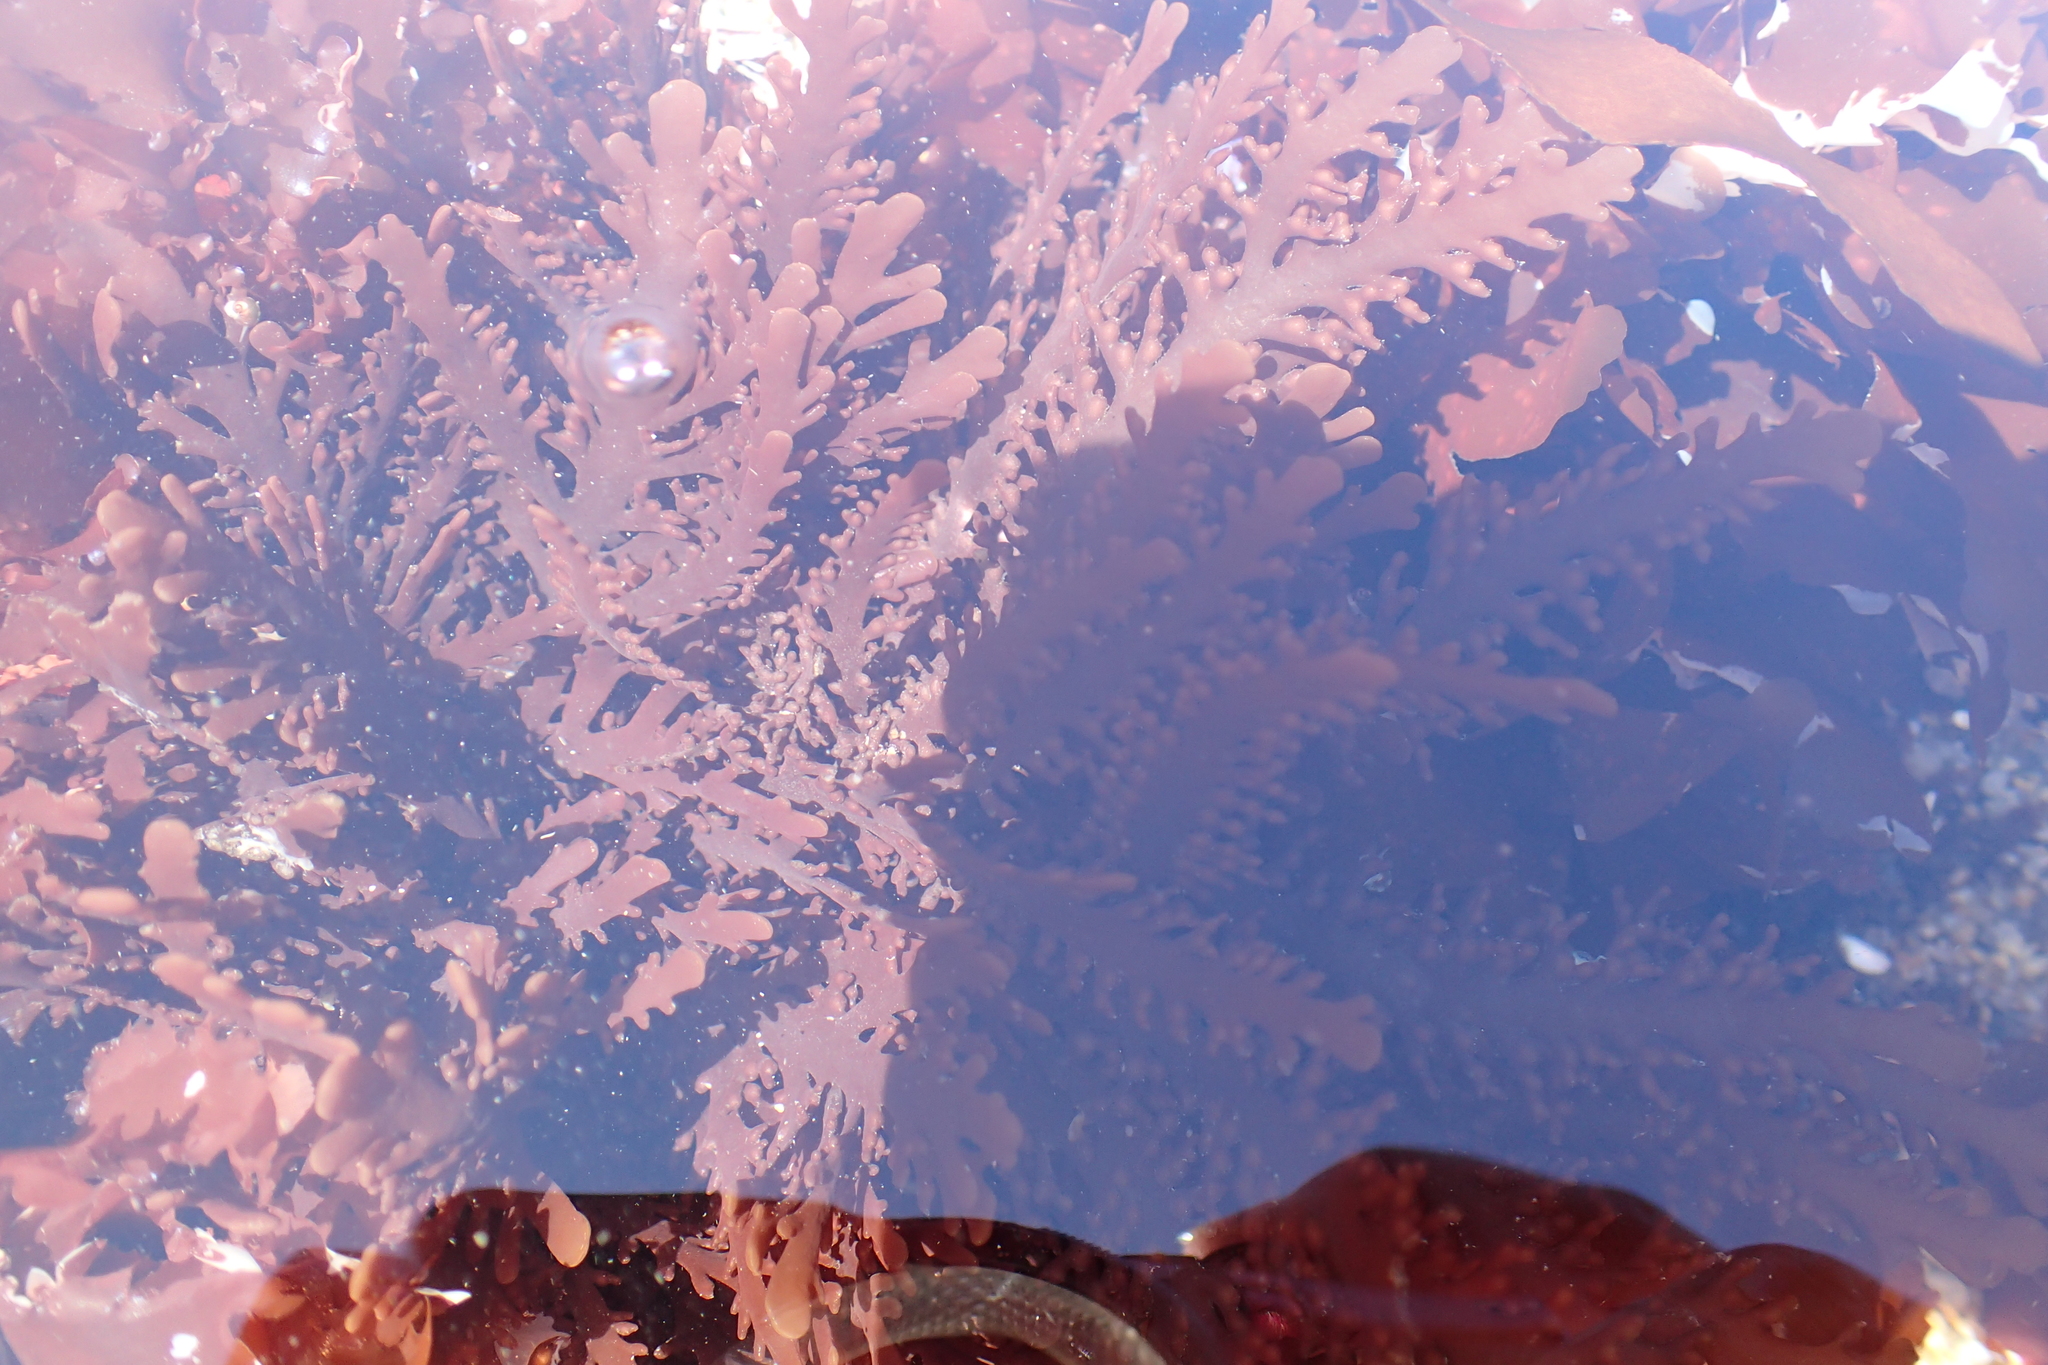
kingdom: Plantae
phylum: Rhodophyta
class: Florideophyceae
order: Ceramiales
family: Rhodomelaceae
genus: Osmundea
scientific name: Osmundea spectabilis
